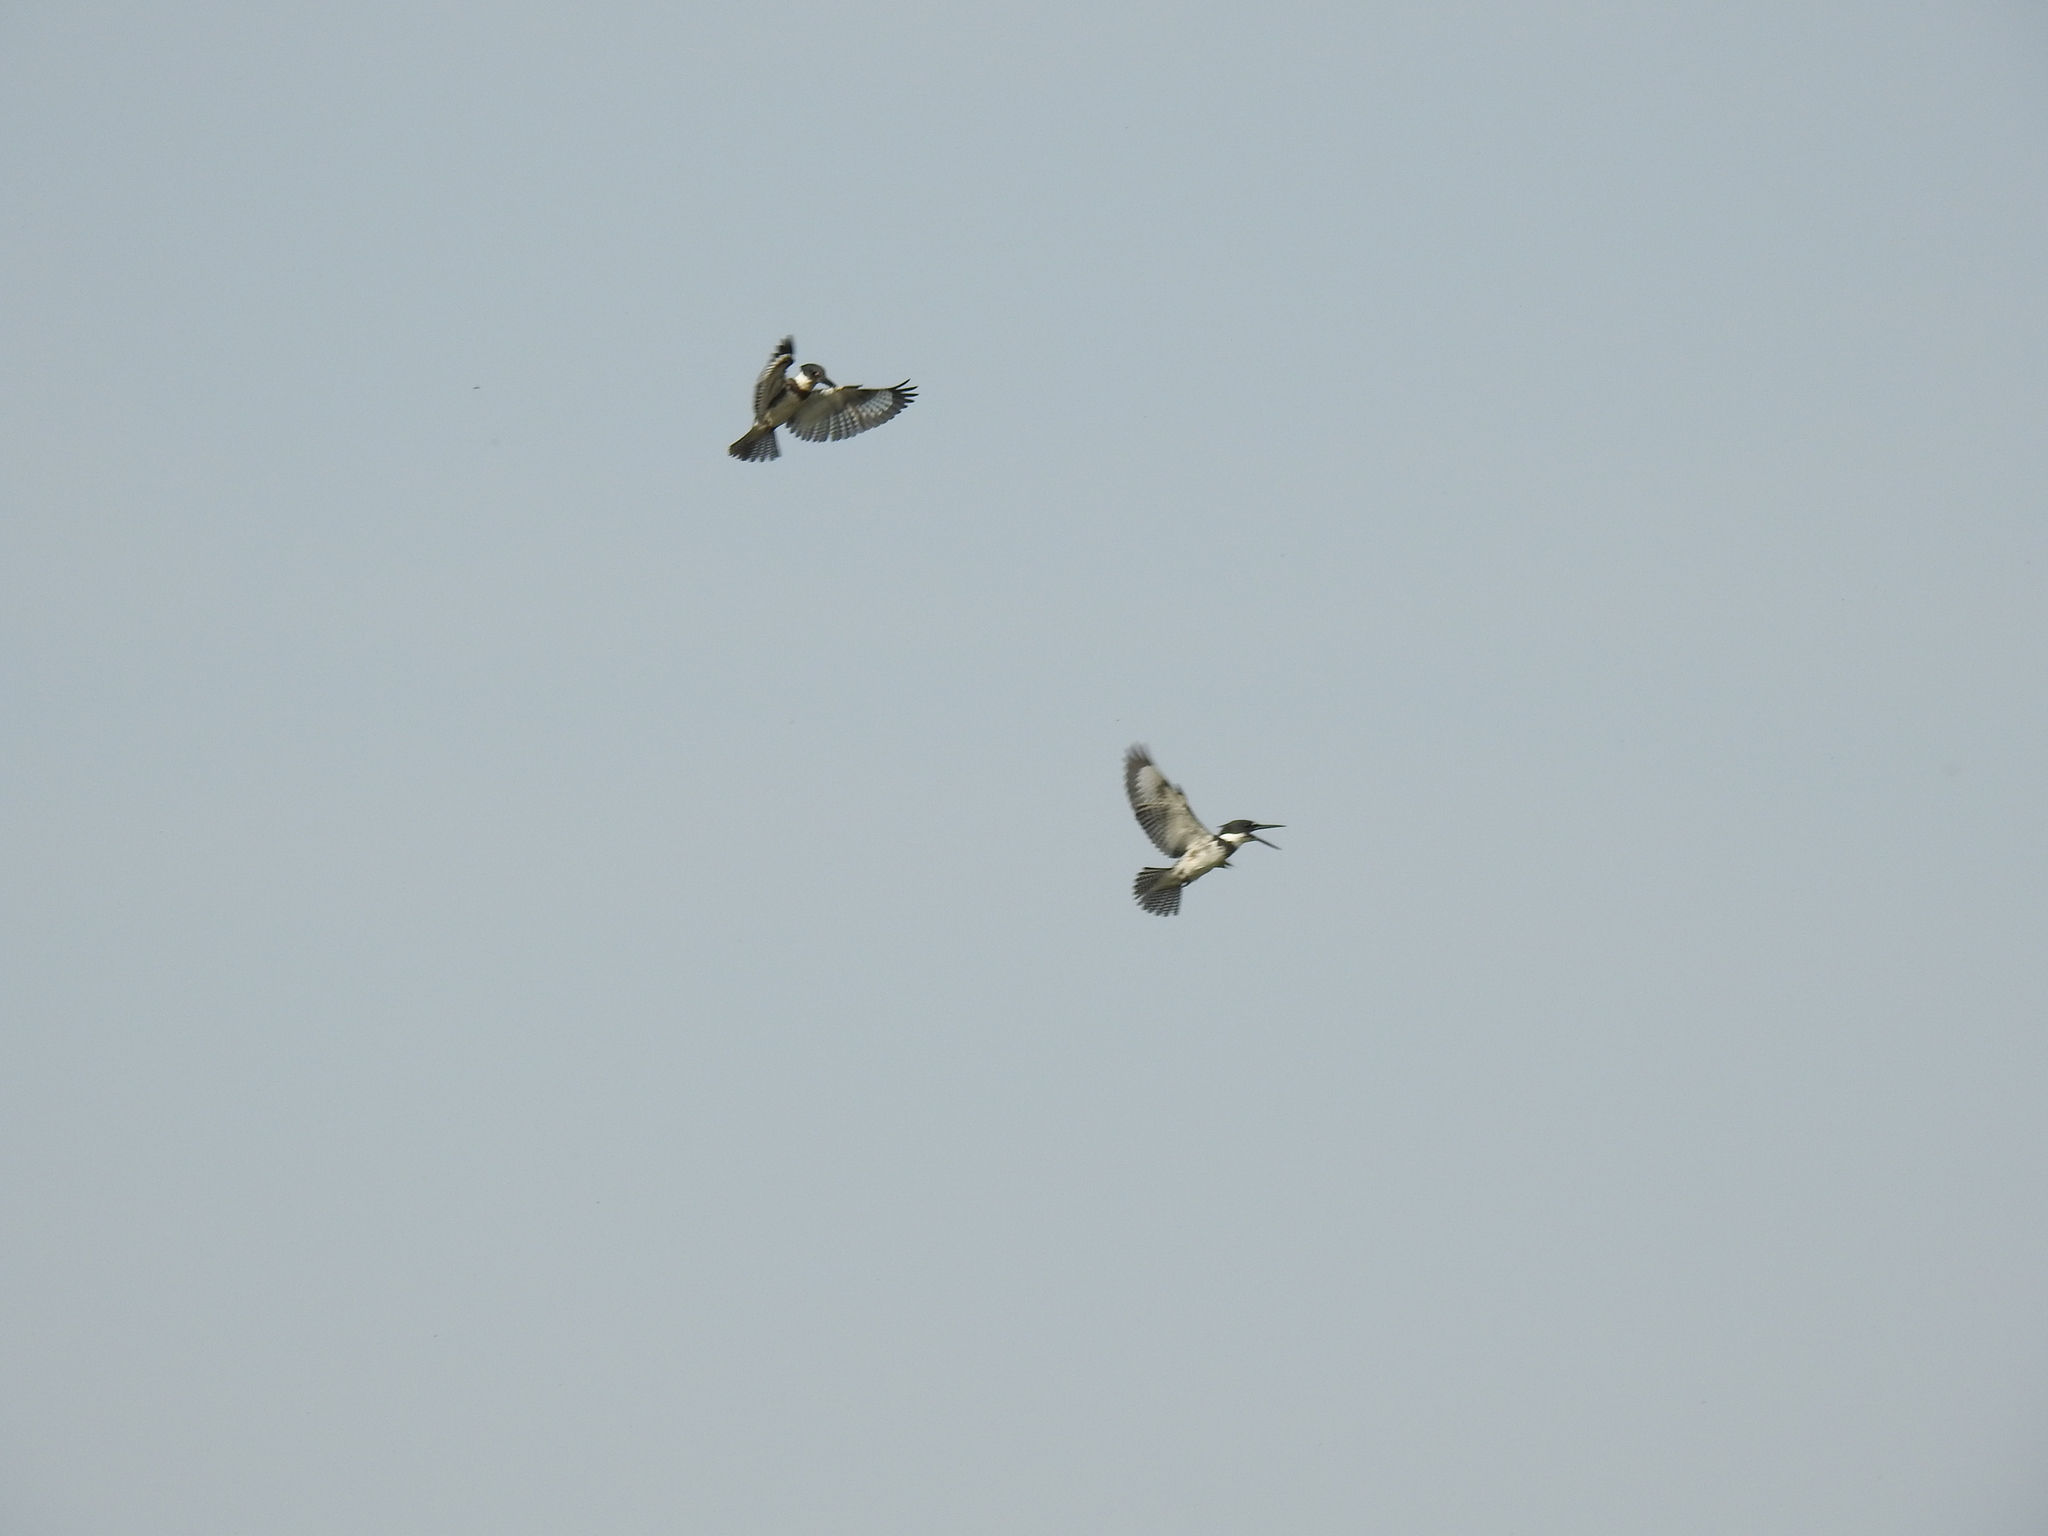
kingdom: Animalia
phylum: Chordata
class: Aves
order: Coraciiformes
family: Alcedinidae
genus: Megaceryle
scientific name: Megaceryle alcyon
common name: Belted kingfisher
